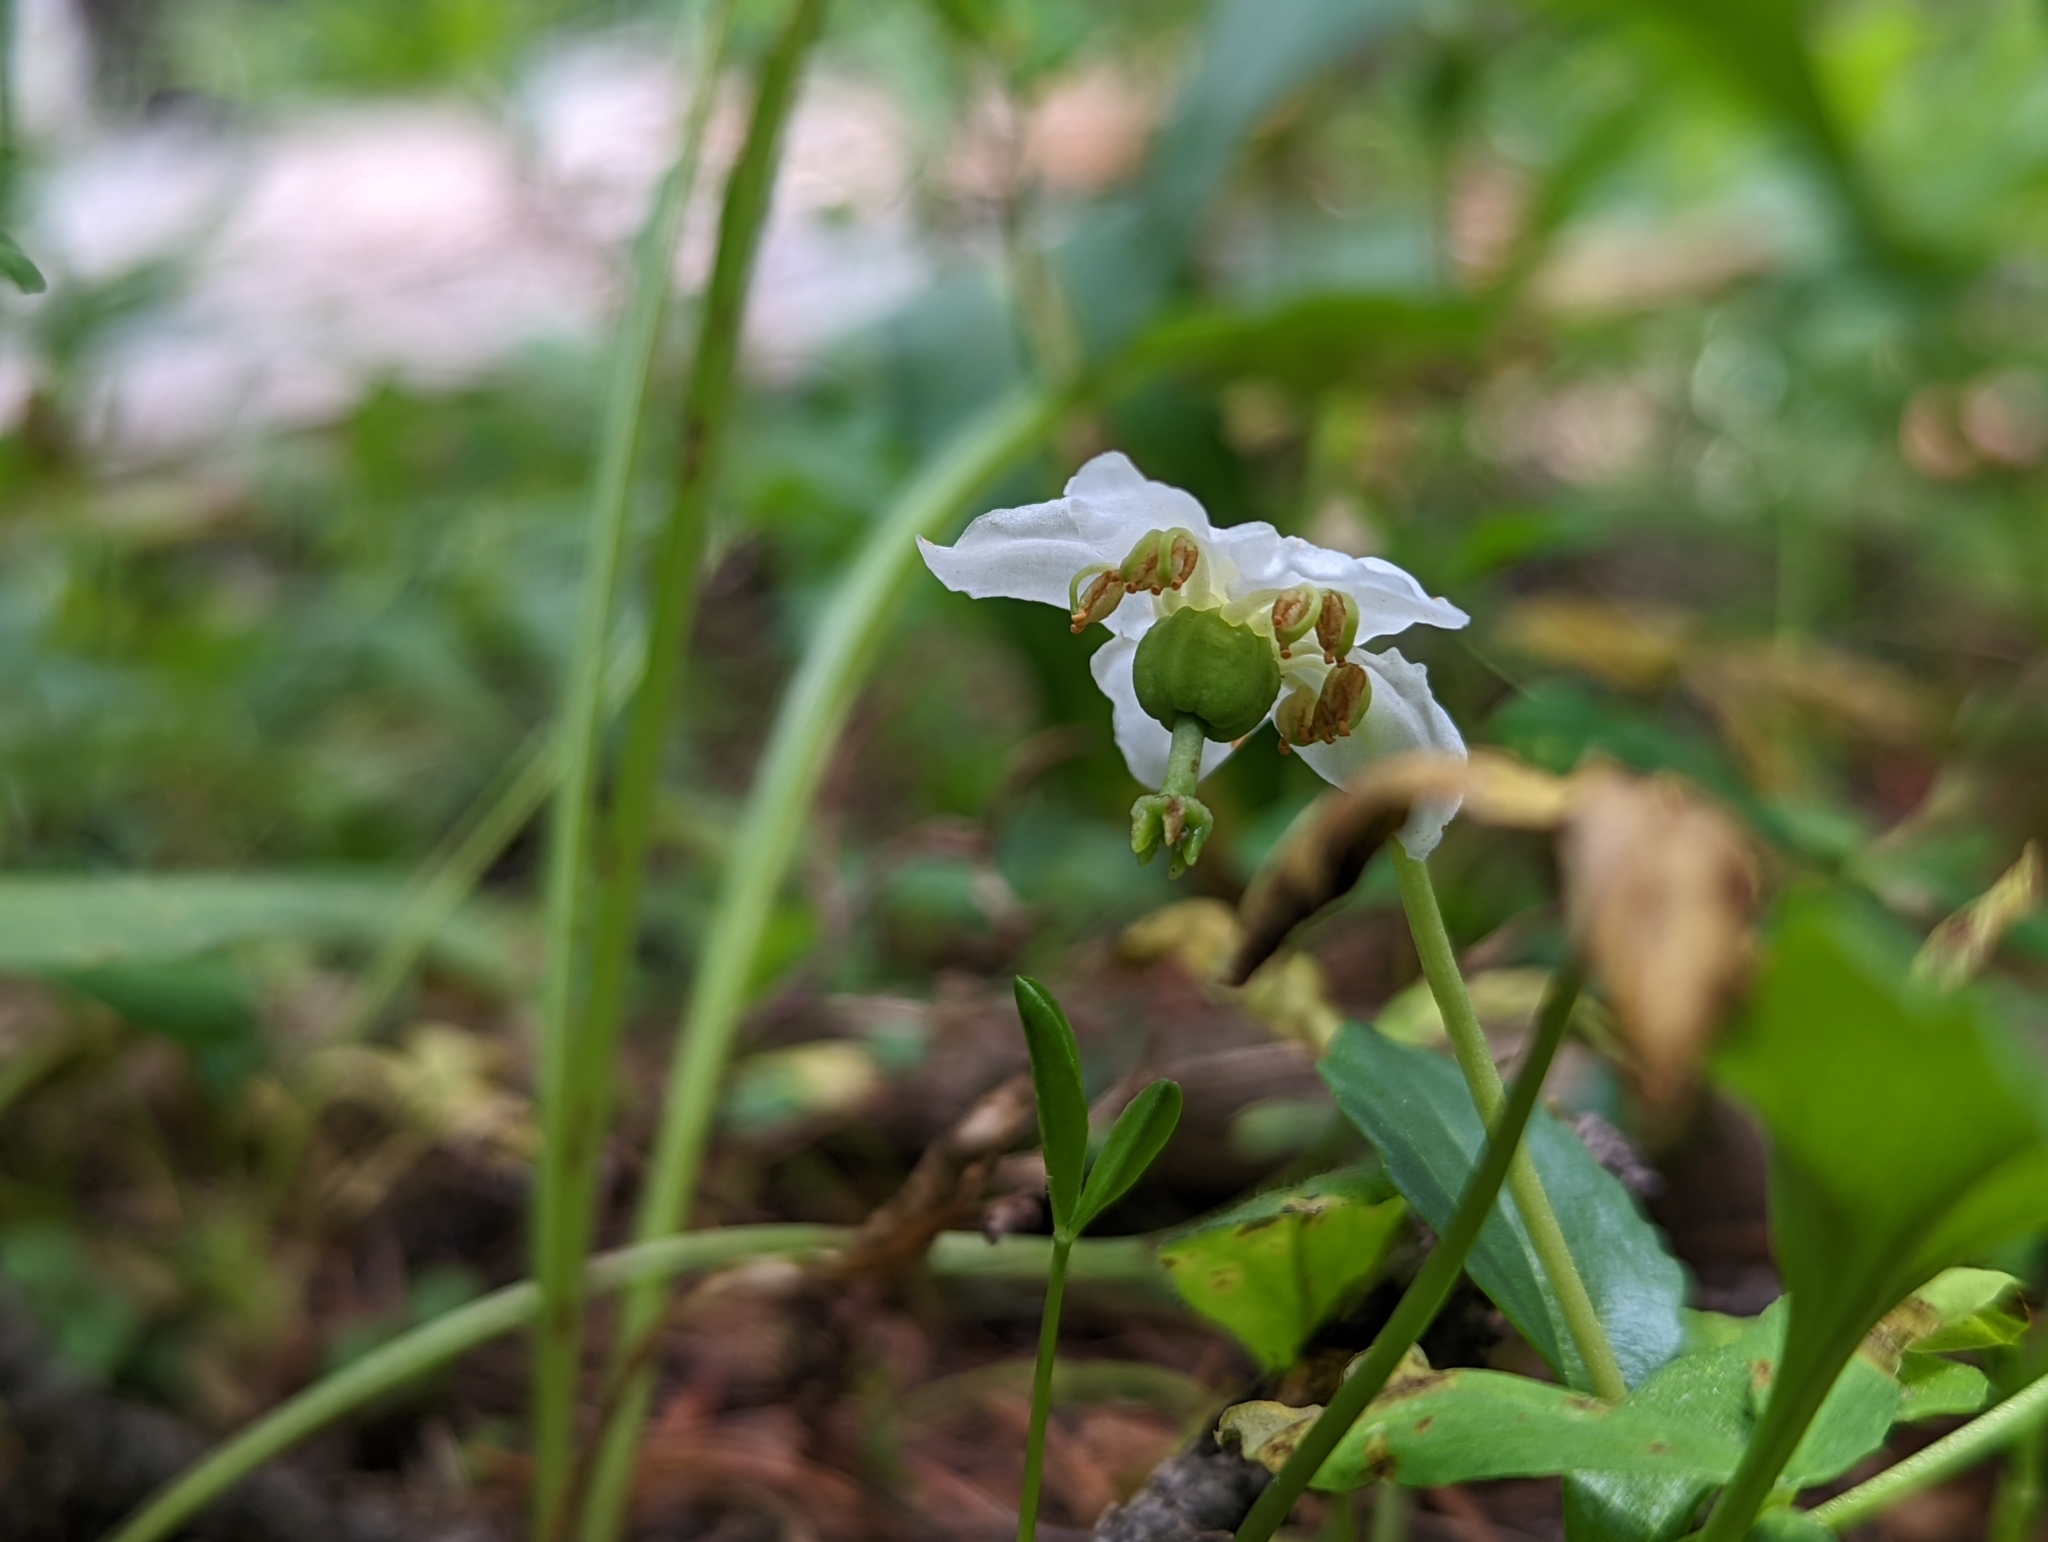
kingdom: Plantae
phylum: Tracheophyta
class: Magnoliopsida
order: Ericales
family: Ericaceae
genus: Moneses
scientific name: Moneses uniflora
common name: One-flowered wintergreen
